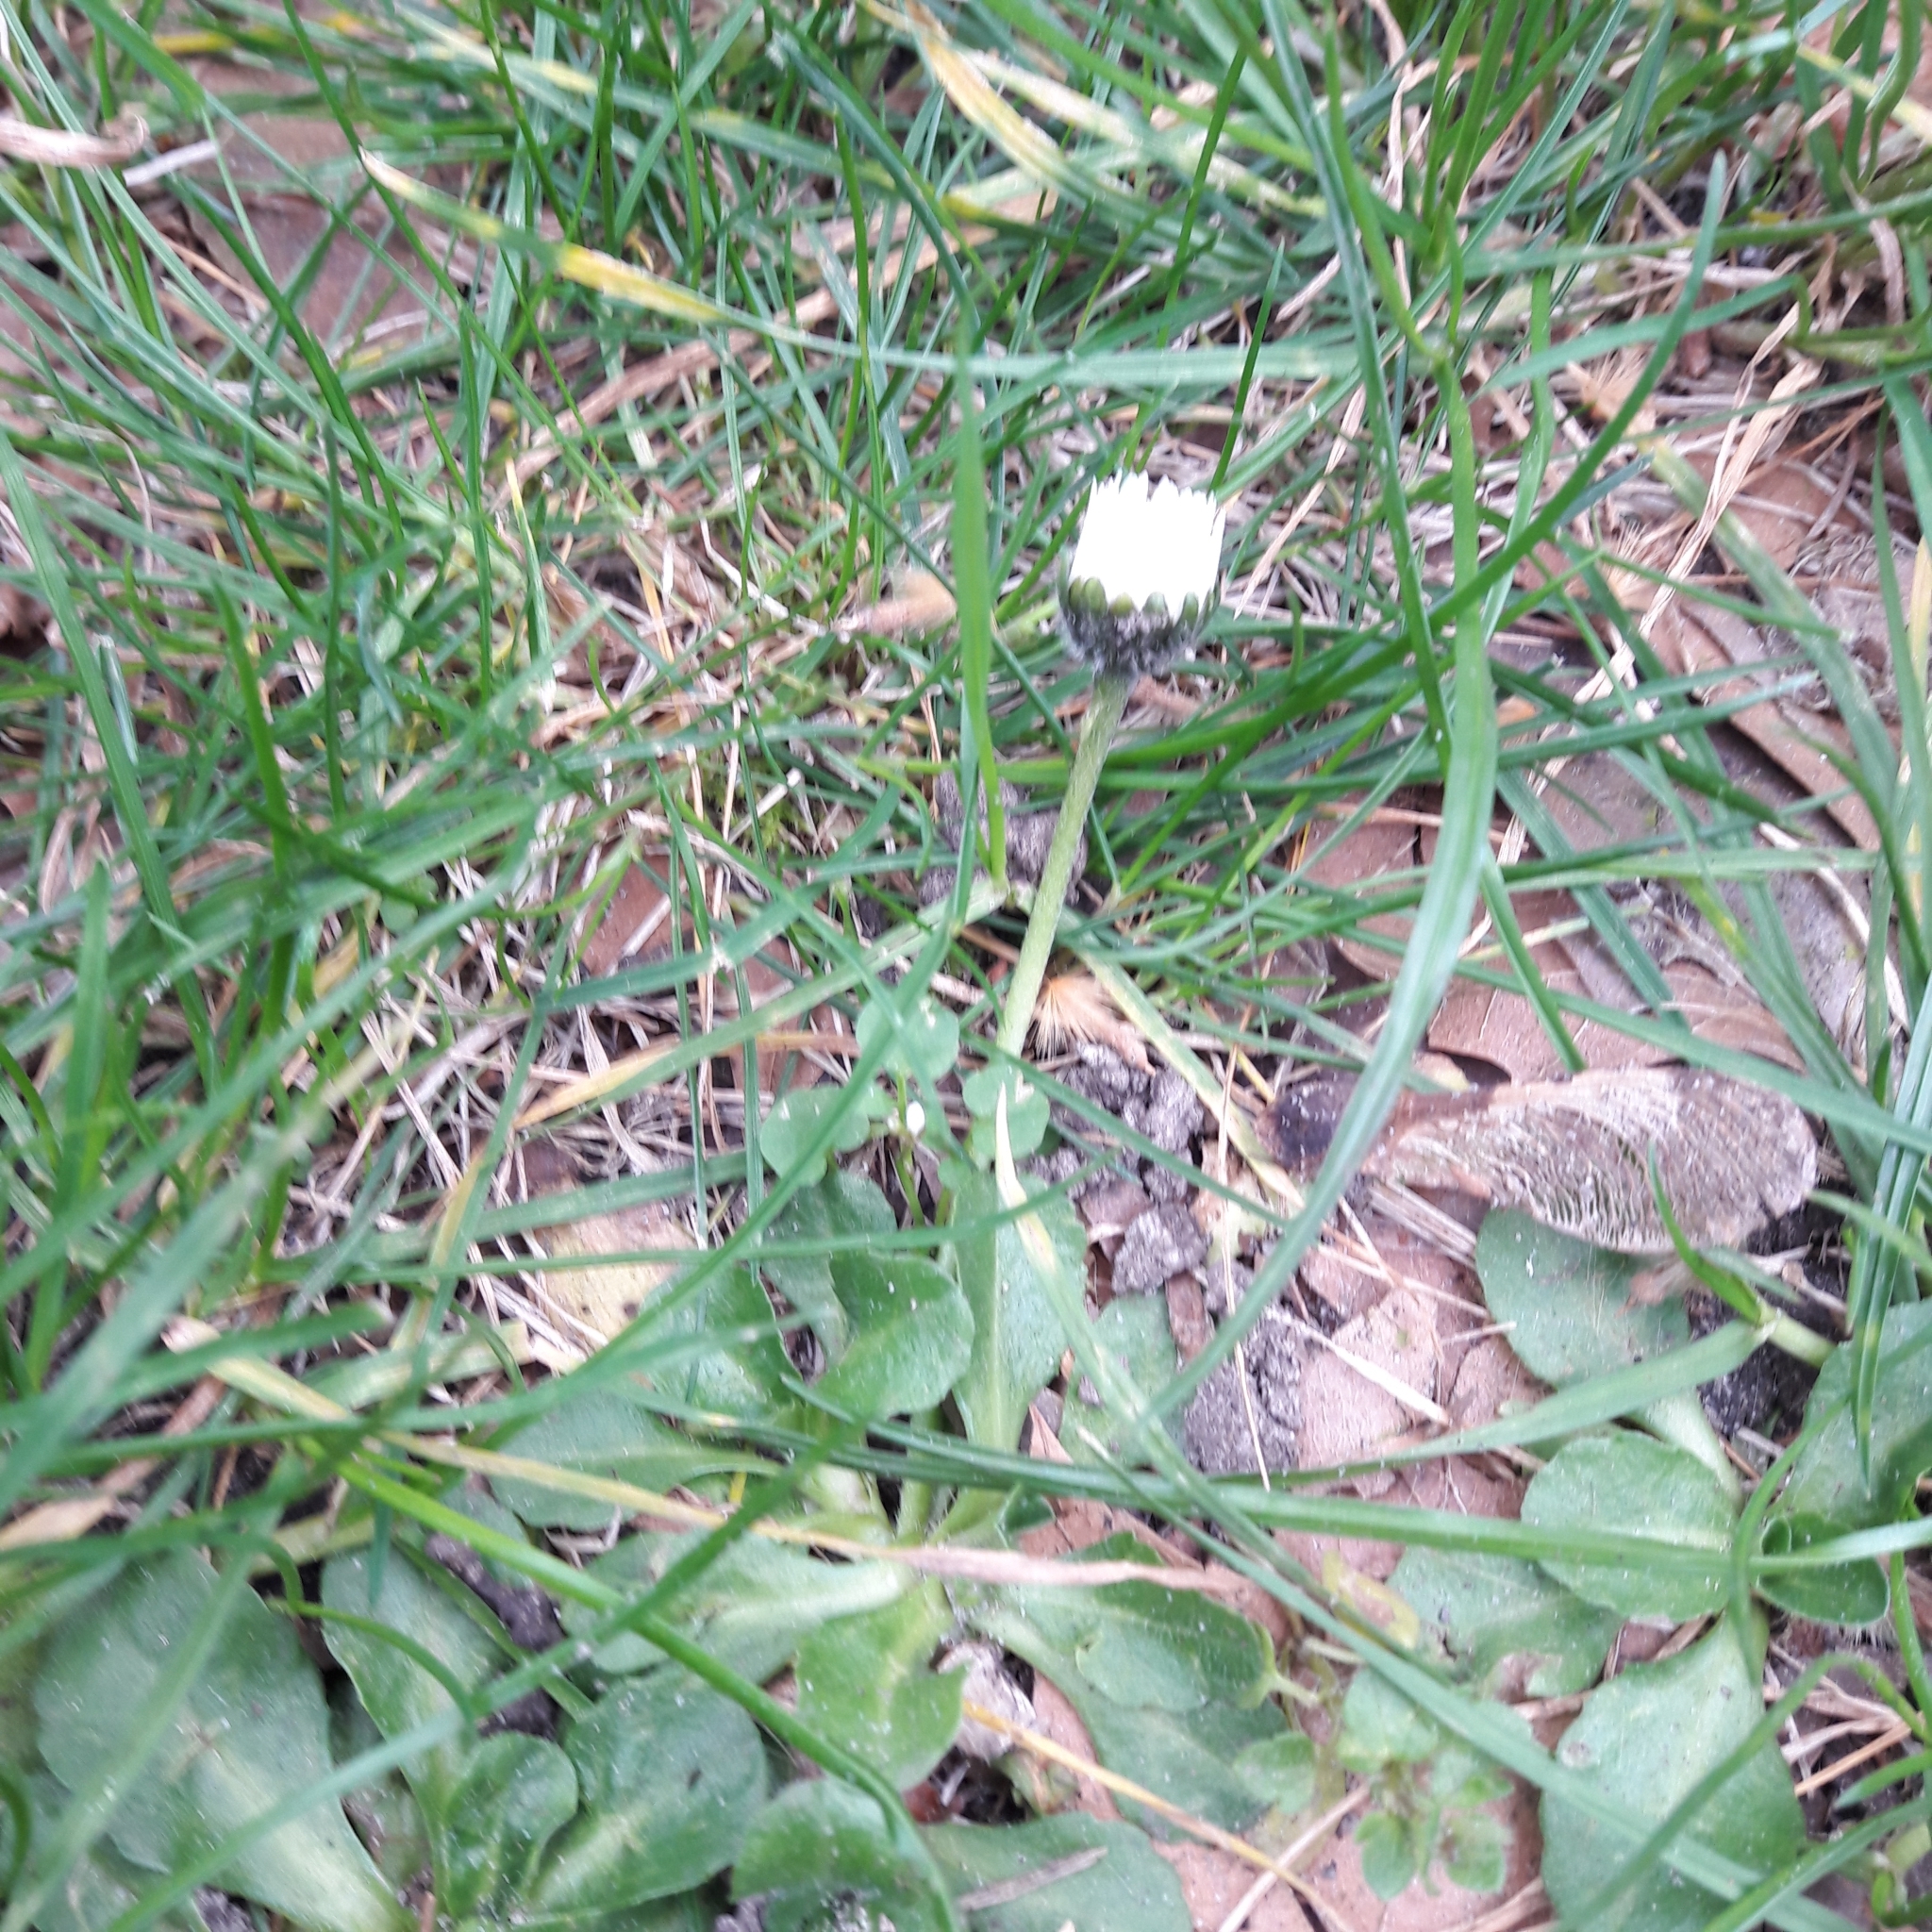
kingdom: Plantae
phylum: Tracheophyta
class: Magnoliopsida
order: Asterales
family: Asteraceae
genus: Bellis
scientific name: Bellis perennis
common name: Lawndaisy
